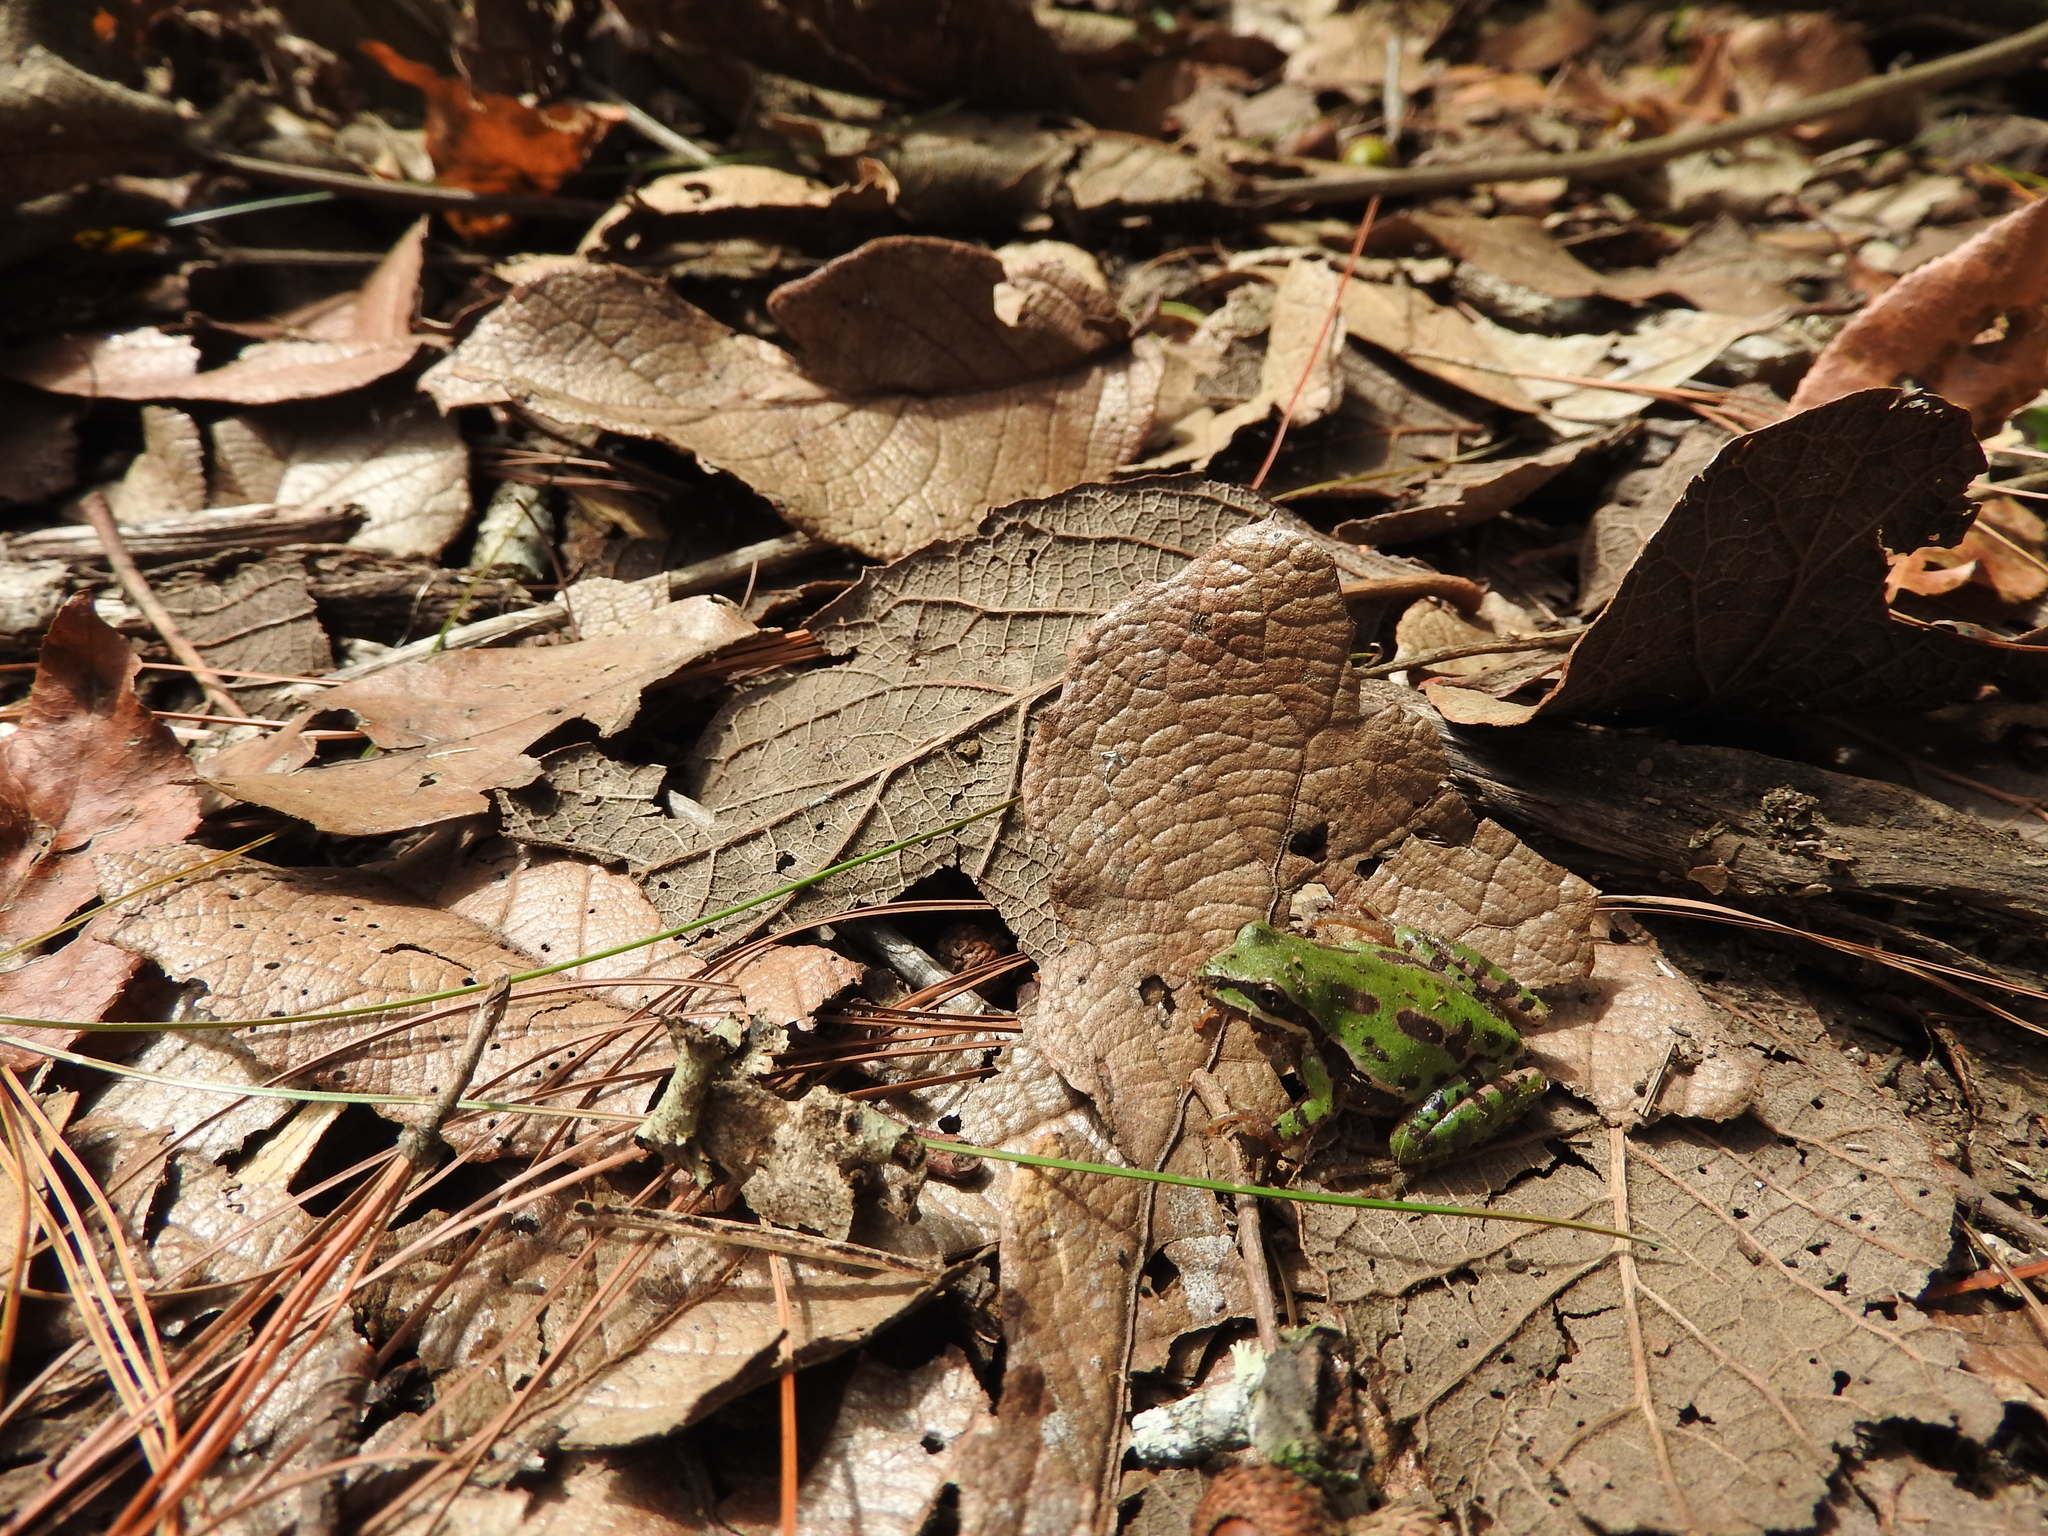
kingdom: Animalia
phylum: Chordata
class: Amphibia
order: Anura
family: Hylidae
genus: Dryophytes
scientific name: Dryophytes eximius
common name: Mountain treefrog
